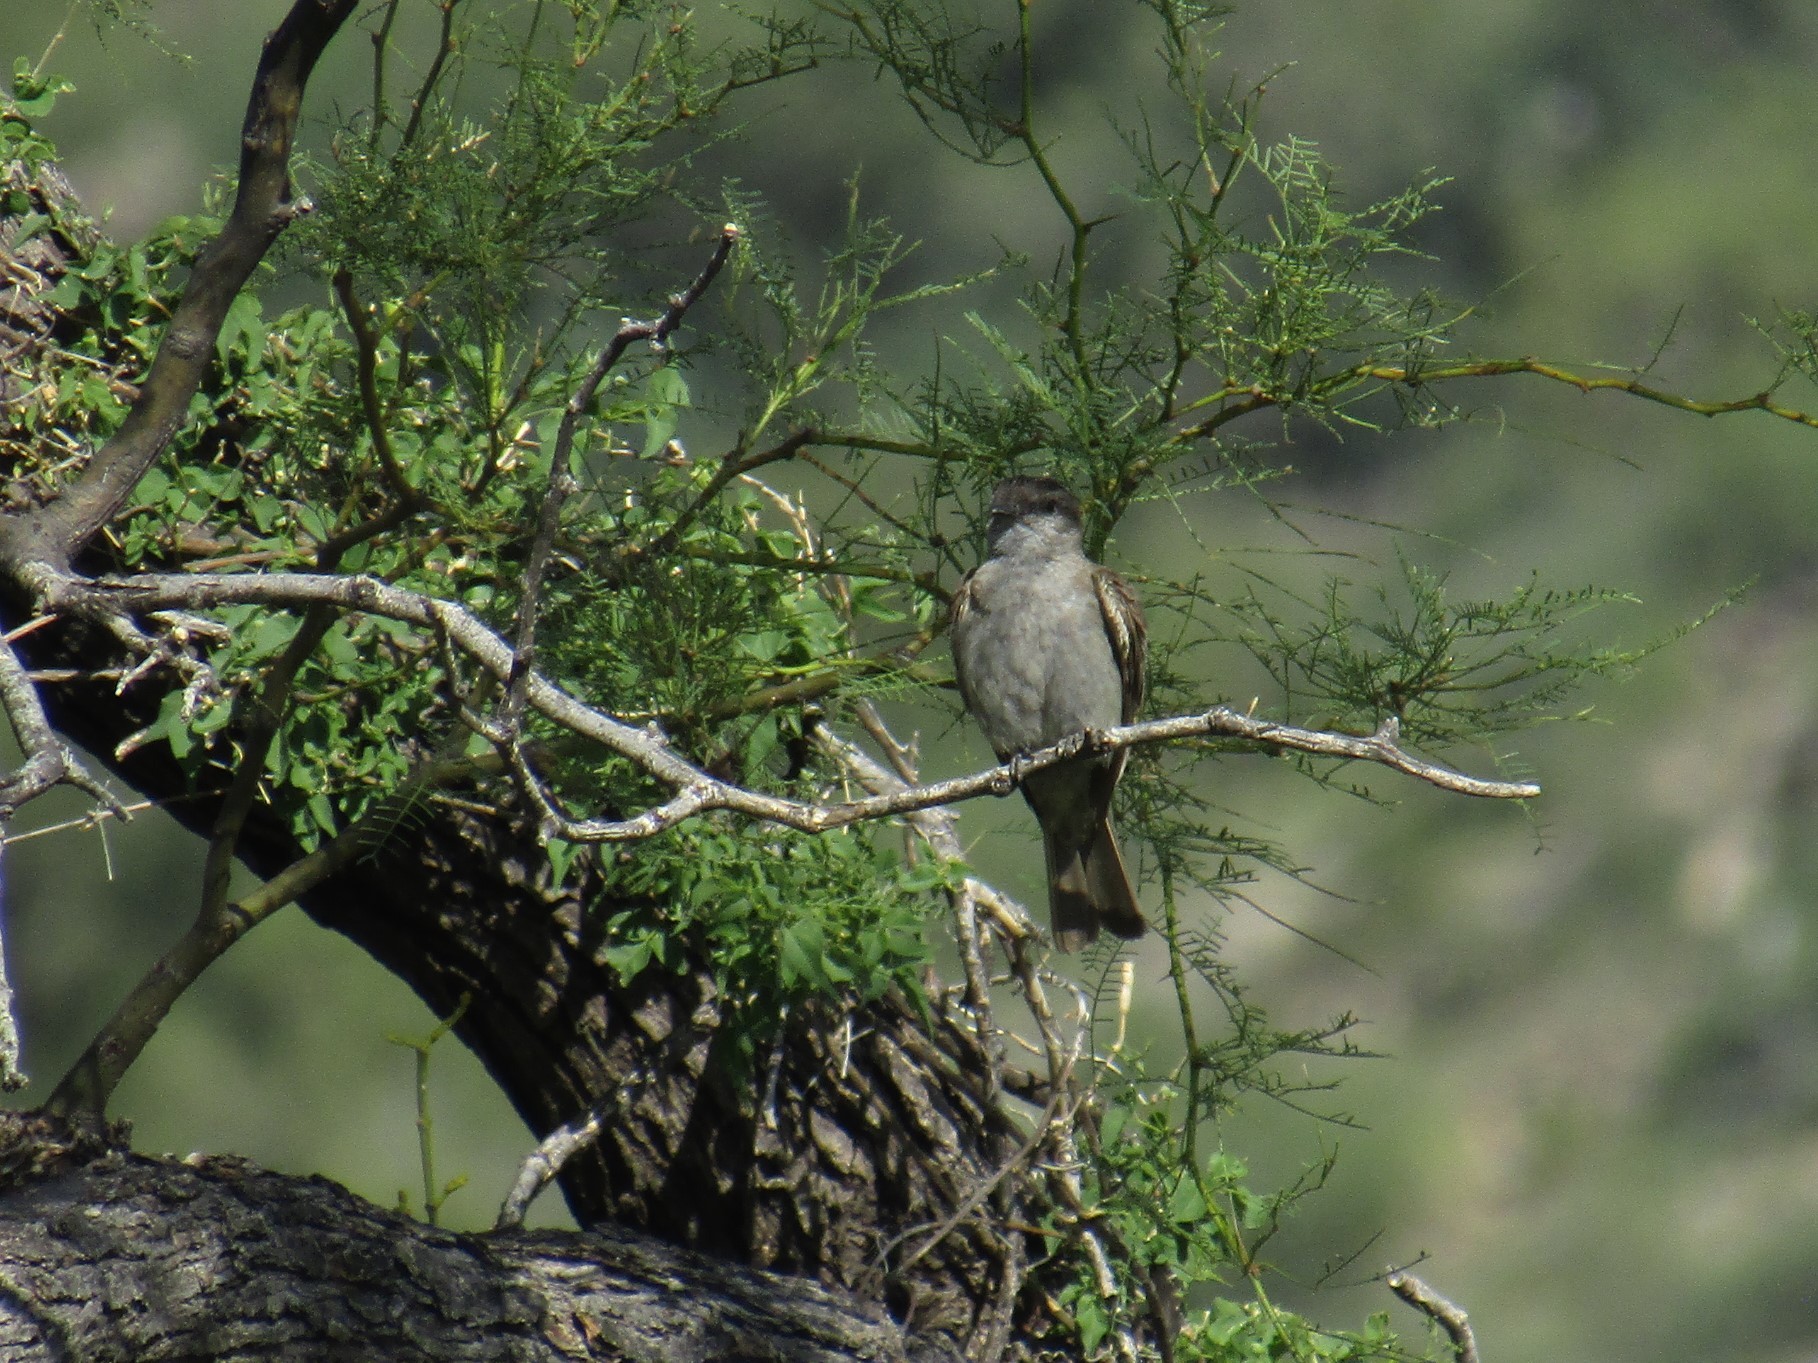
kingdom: Animalia
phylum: Chordata
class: Aves
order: Passeriformes
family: Tyrannidae
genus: Empidonomus
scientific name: Empidonomus aurantioatrocristatus
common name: Crowned slaty flycatcher
